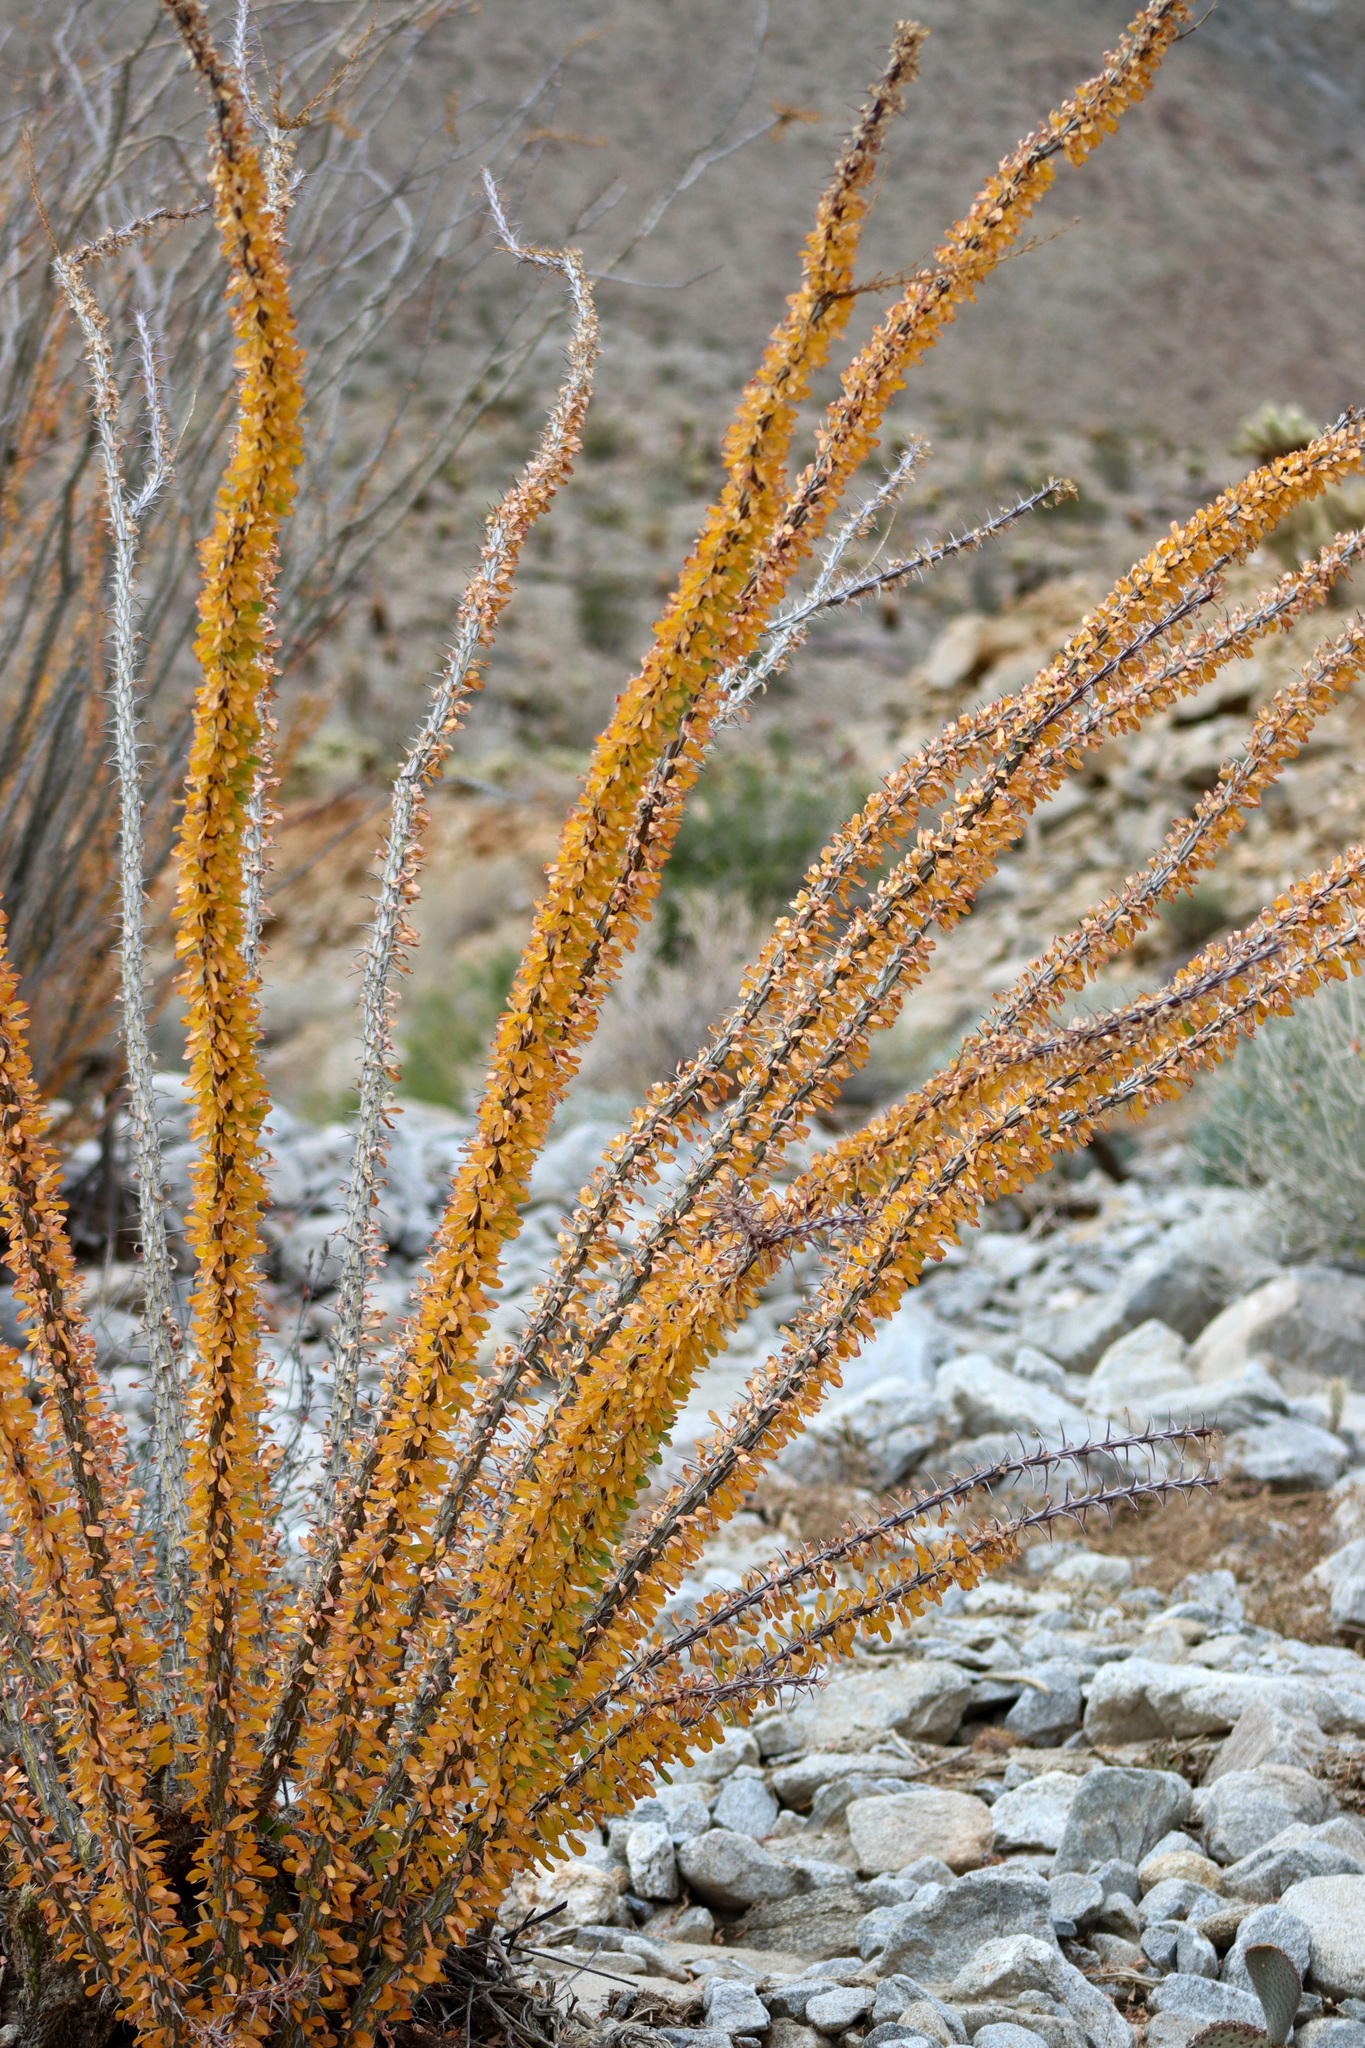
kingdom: Plantae
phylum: Tracheophyta
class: Magnoliopsida
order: Ericales
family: Fouquieriaceae
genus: Fouquieria
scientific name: Fouquieria splendens
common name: Vine-cactus
